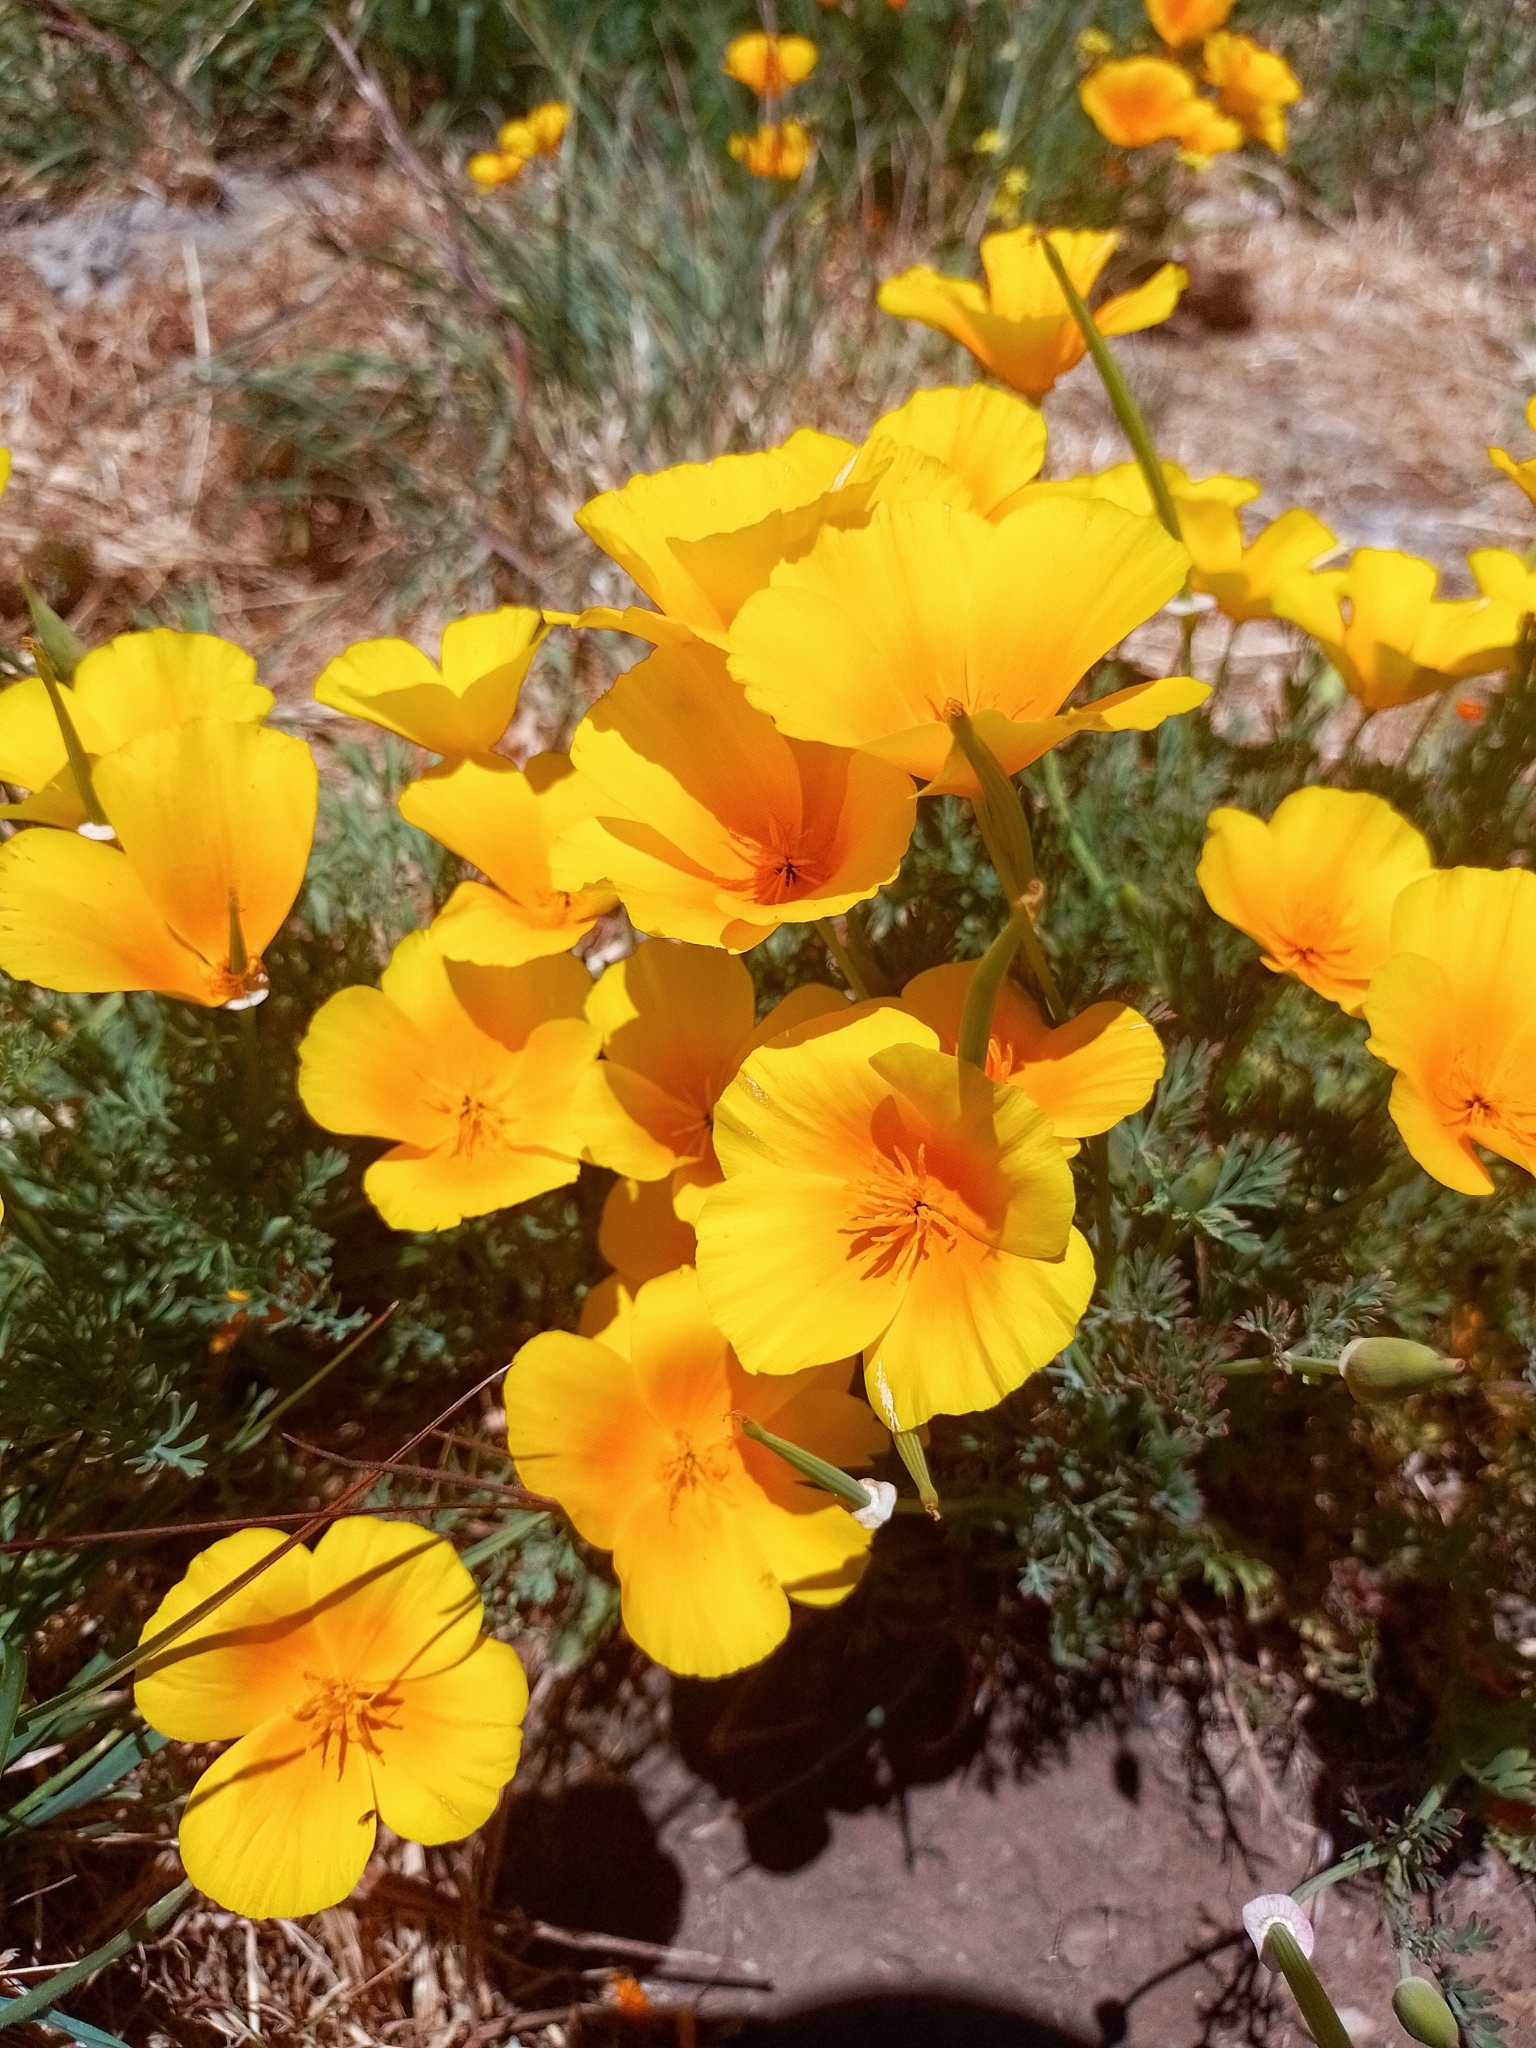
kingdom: Plantae
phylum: Tracheophyta
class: Magnoliopsida
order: Ranunculales
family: Papaveraceae
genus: Eschscholzia
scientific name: Eschscholzia californica
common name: California poppy
